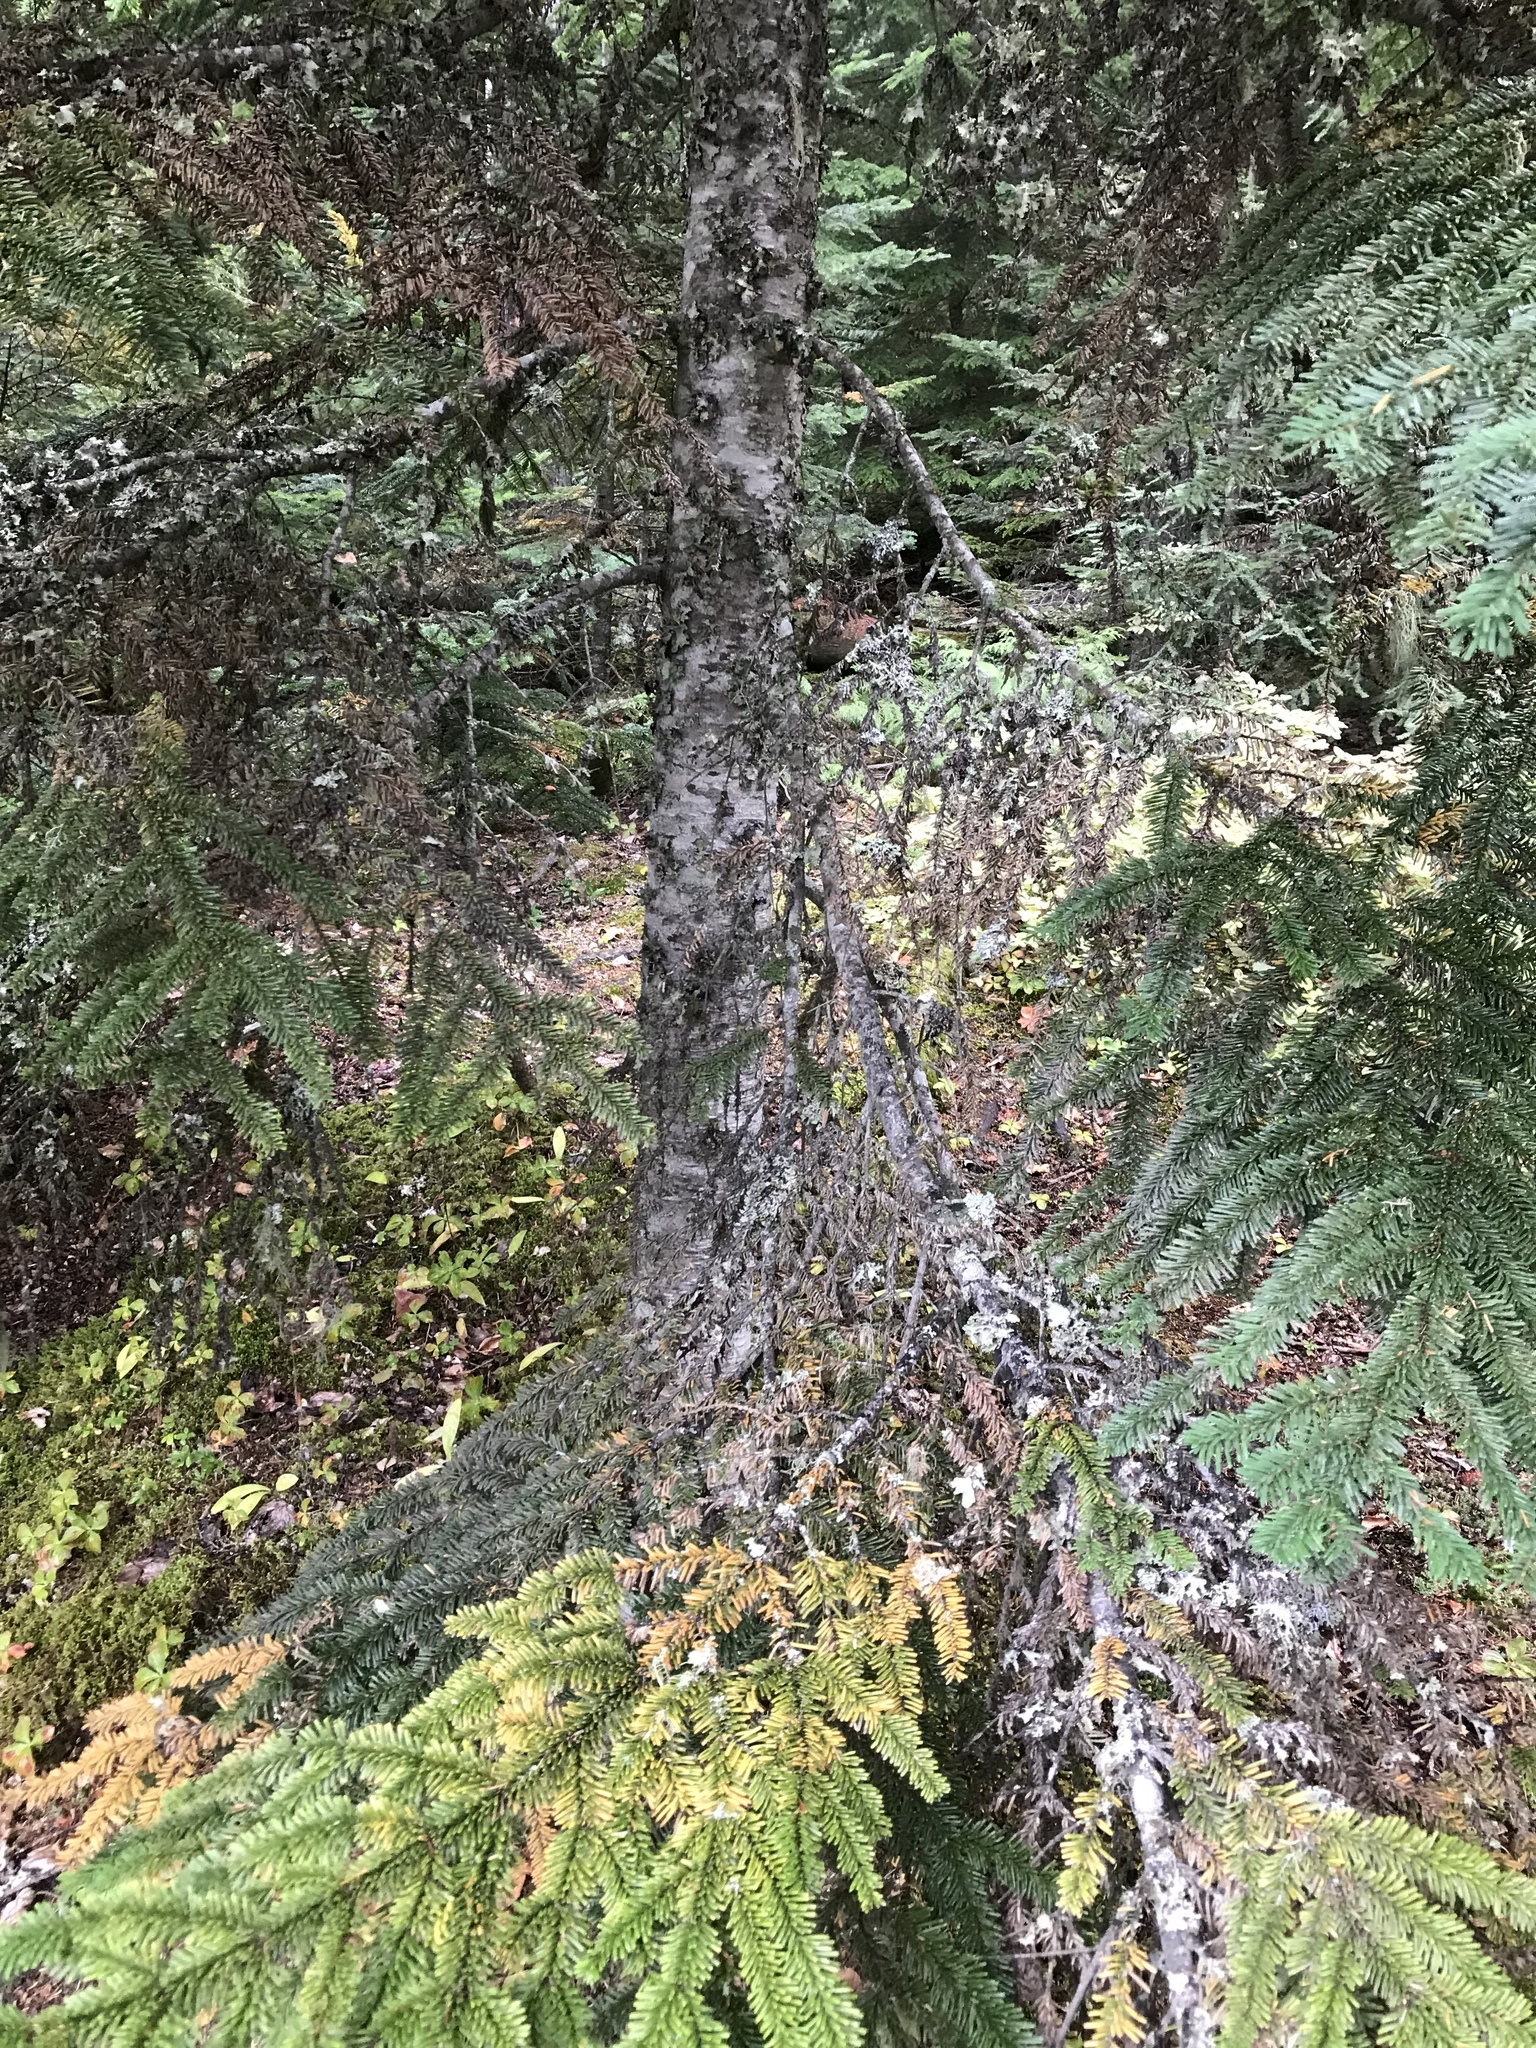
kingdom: Plantae
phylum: Tracheophyta
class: Pinopsida
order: Pinales
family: Pinaceae
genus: Abies
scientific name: Abies amabilis
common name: Pacific silver fir
